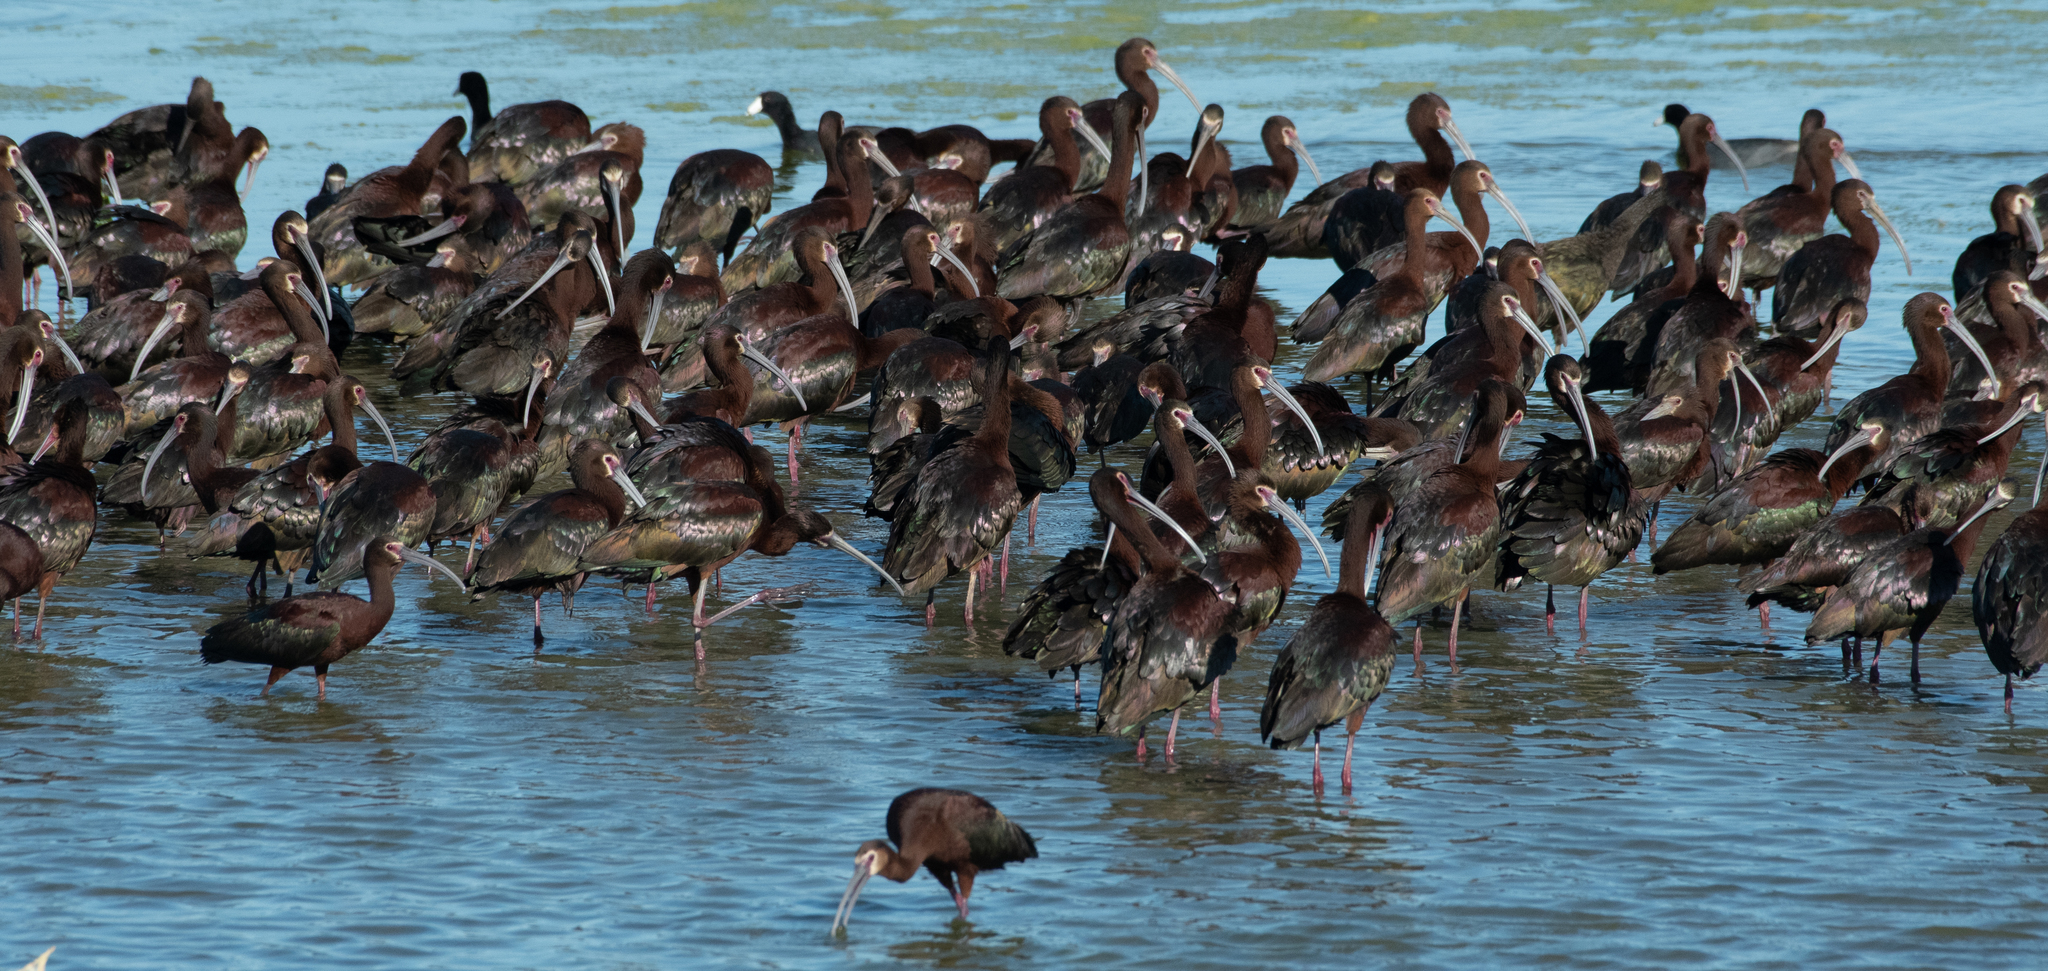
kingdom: Animalia
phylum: Chordata
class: Aves
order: Pelecaniformes
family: Threskiornithidae
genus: Plegadis
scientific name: Plegadis chihi
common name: White-faced ibis
